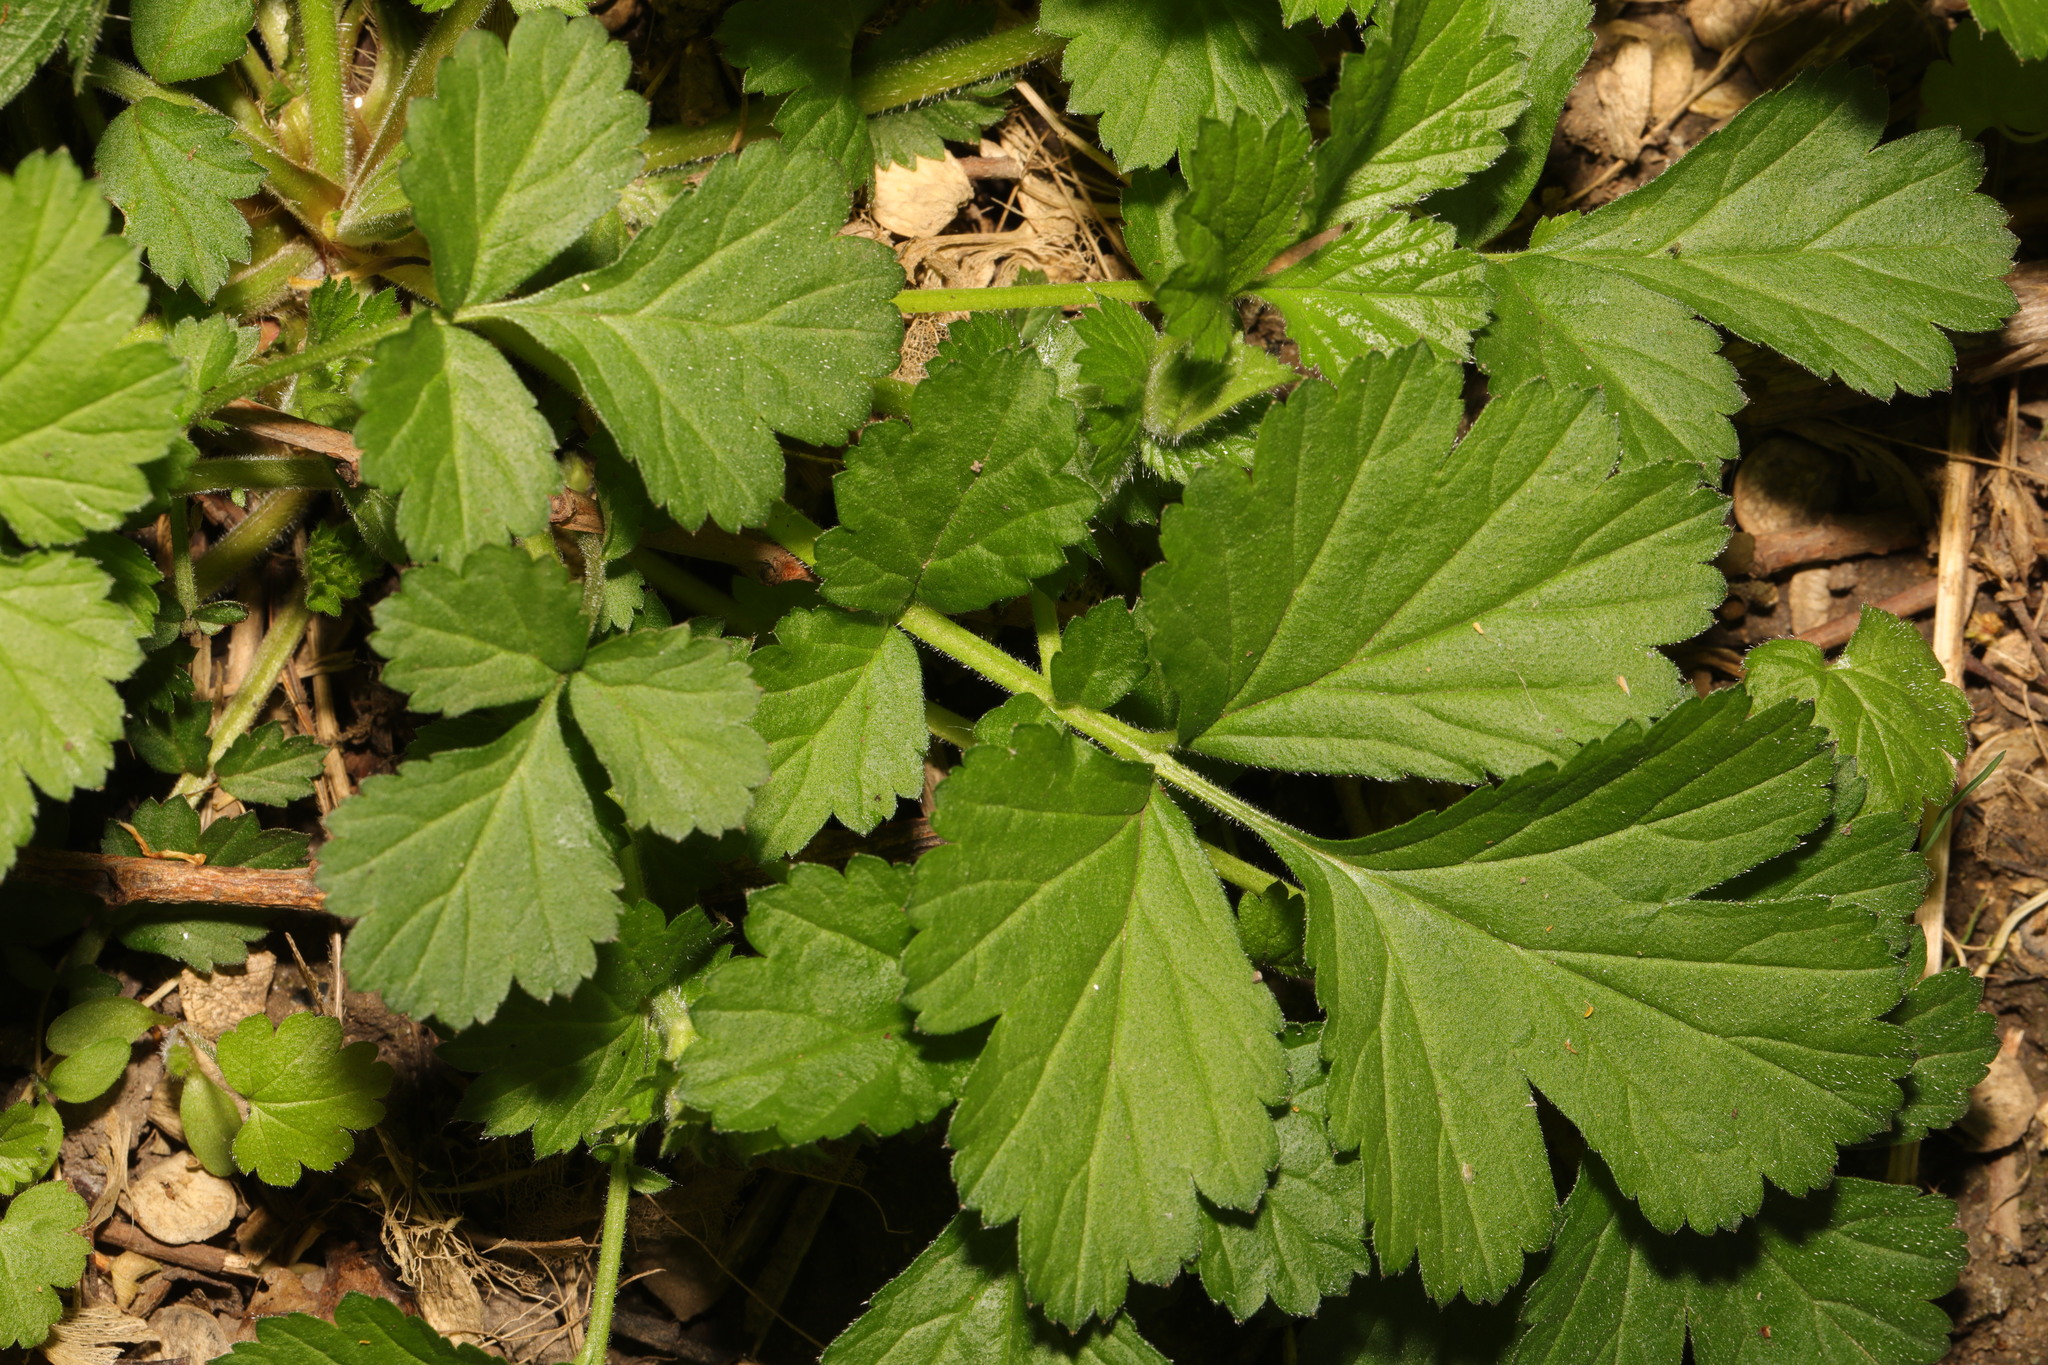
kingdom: Plantae
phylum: Tracheophyta
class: Magnoliopsida
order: Rosales
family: Rosaceae
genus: Geum
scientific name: Geum urbanum
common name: Wood avens
